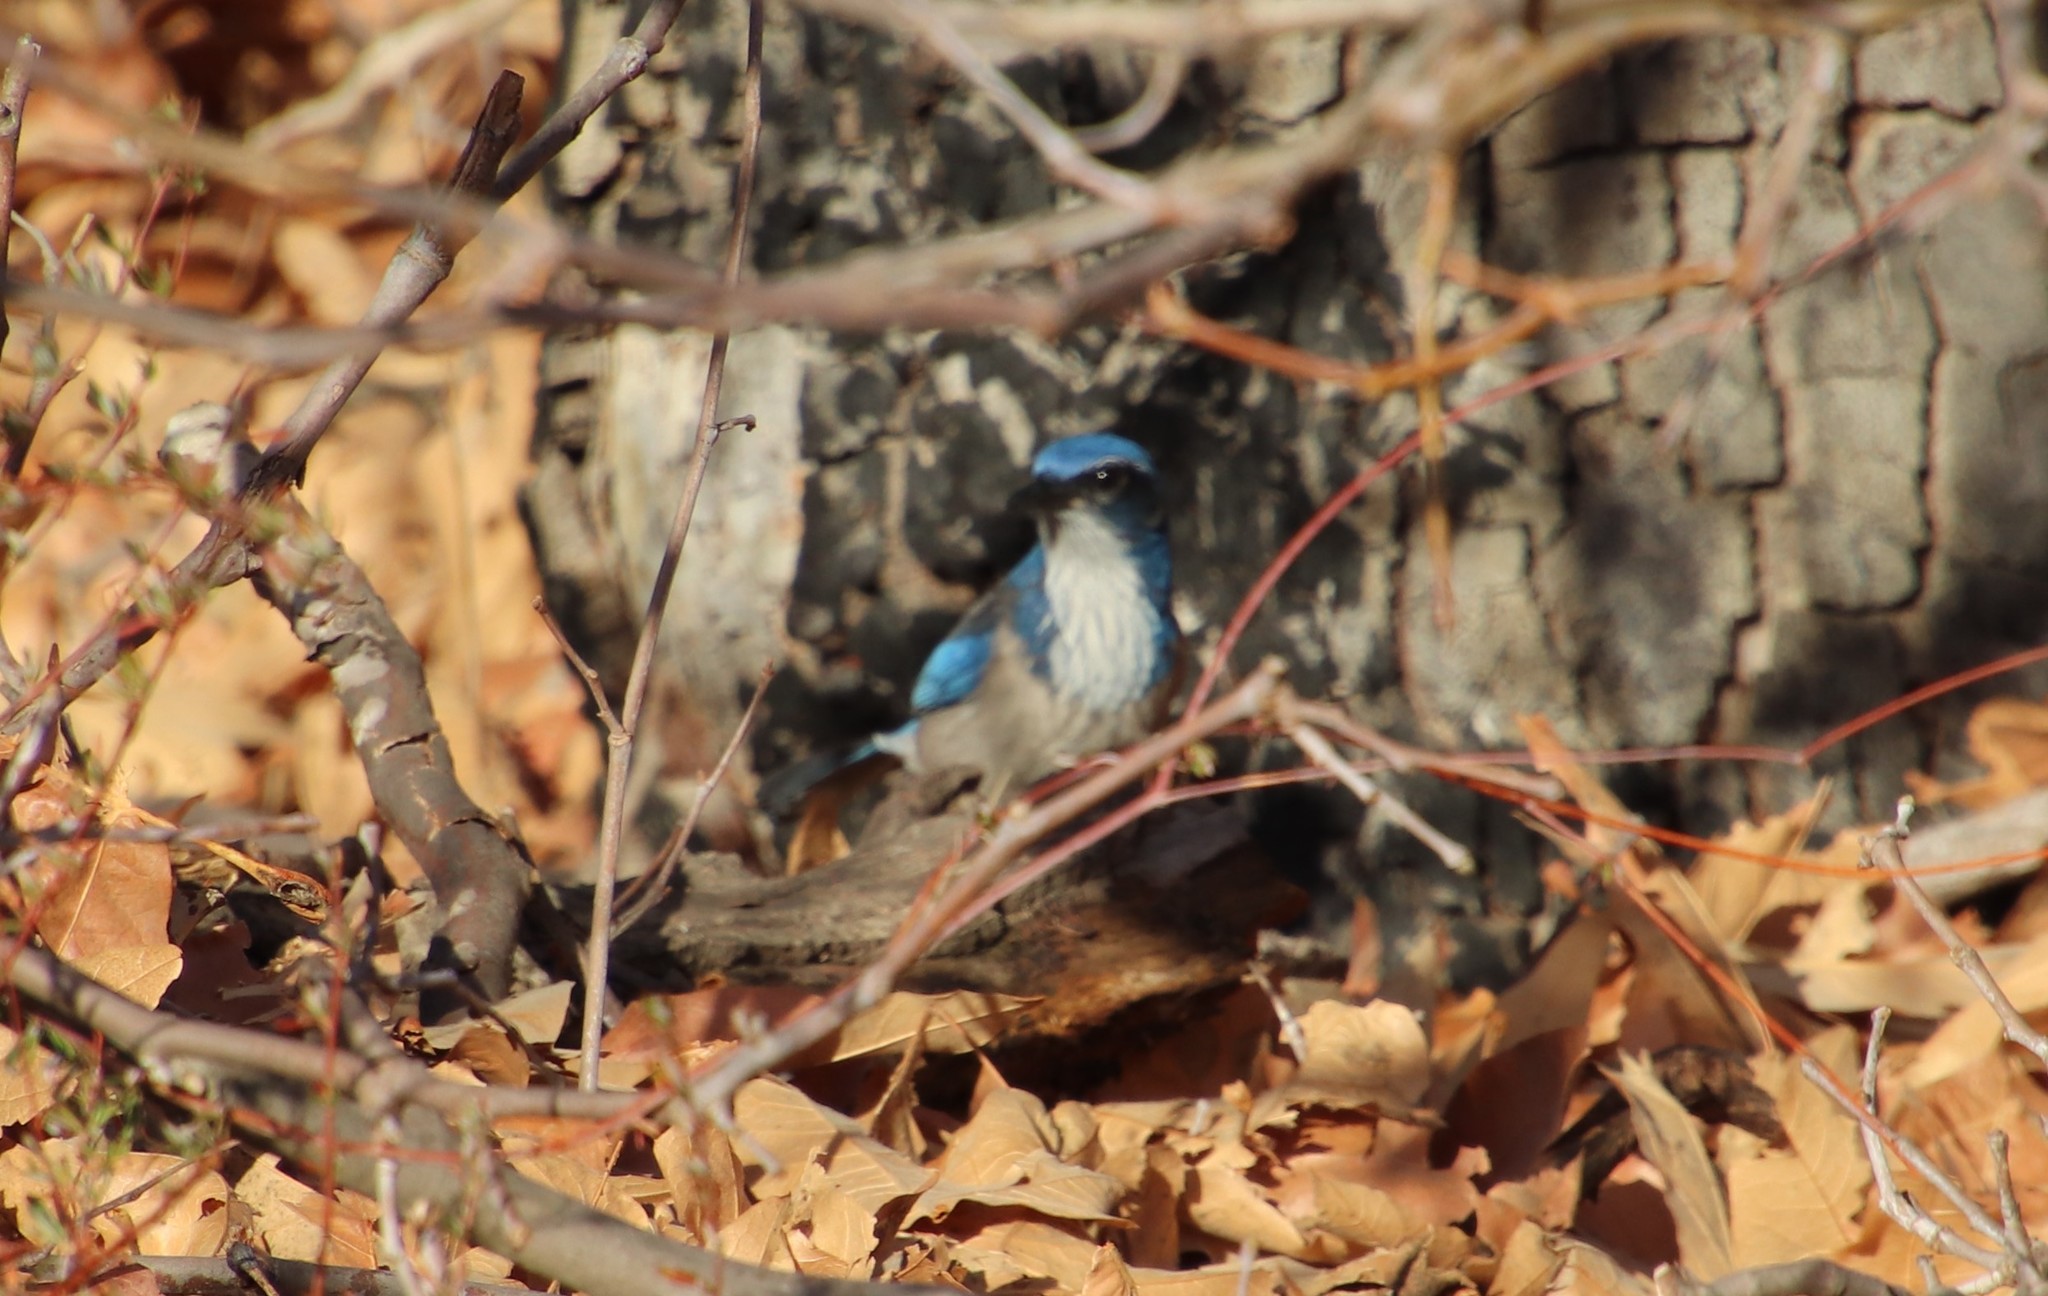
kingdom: Animalia
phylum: Chordata
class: Aves
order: Passeriformes
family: Corvidae
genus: Aphelocoma
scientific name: Aphelocoma californica
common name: California scrub-jay
